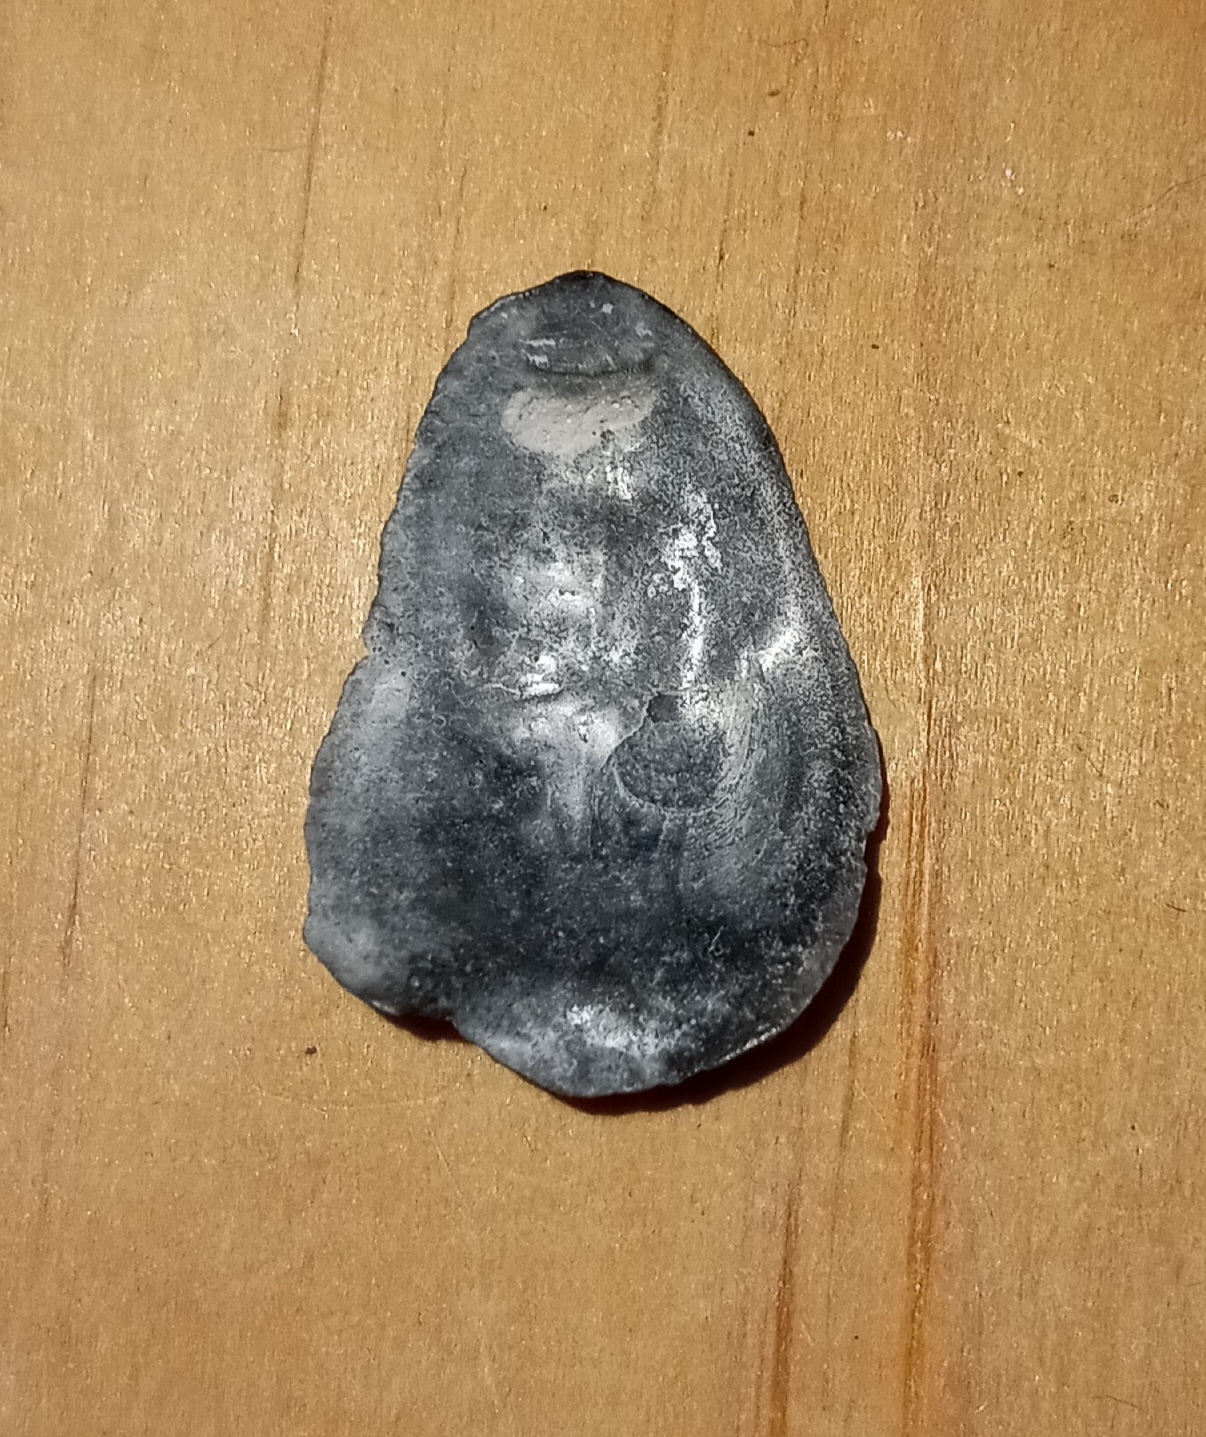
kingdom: Animalia
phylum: Mollusca
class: Bivalvia
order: Ostreida
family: Ostreidae
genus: Crassostrea
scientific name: Crassostrea virginica
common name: American oyster
